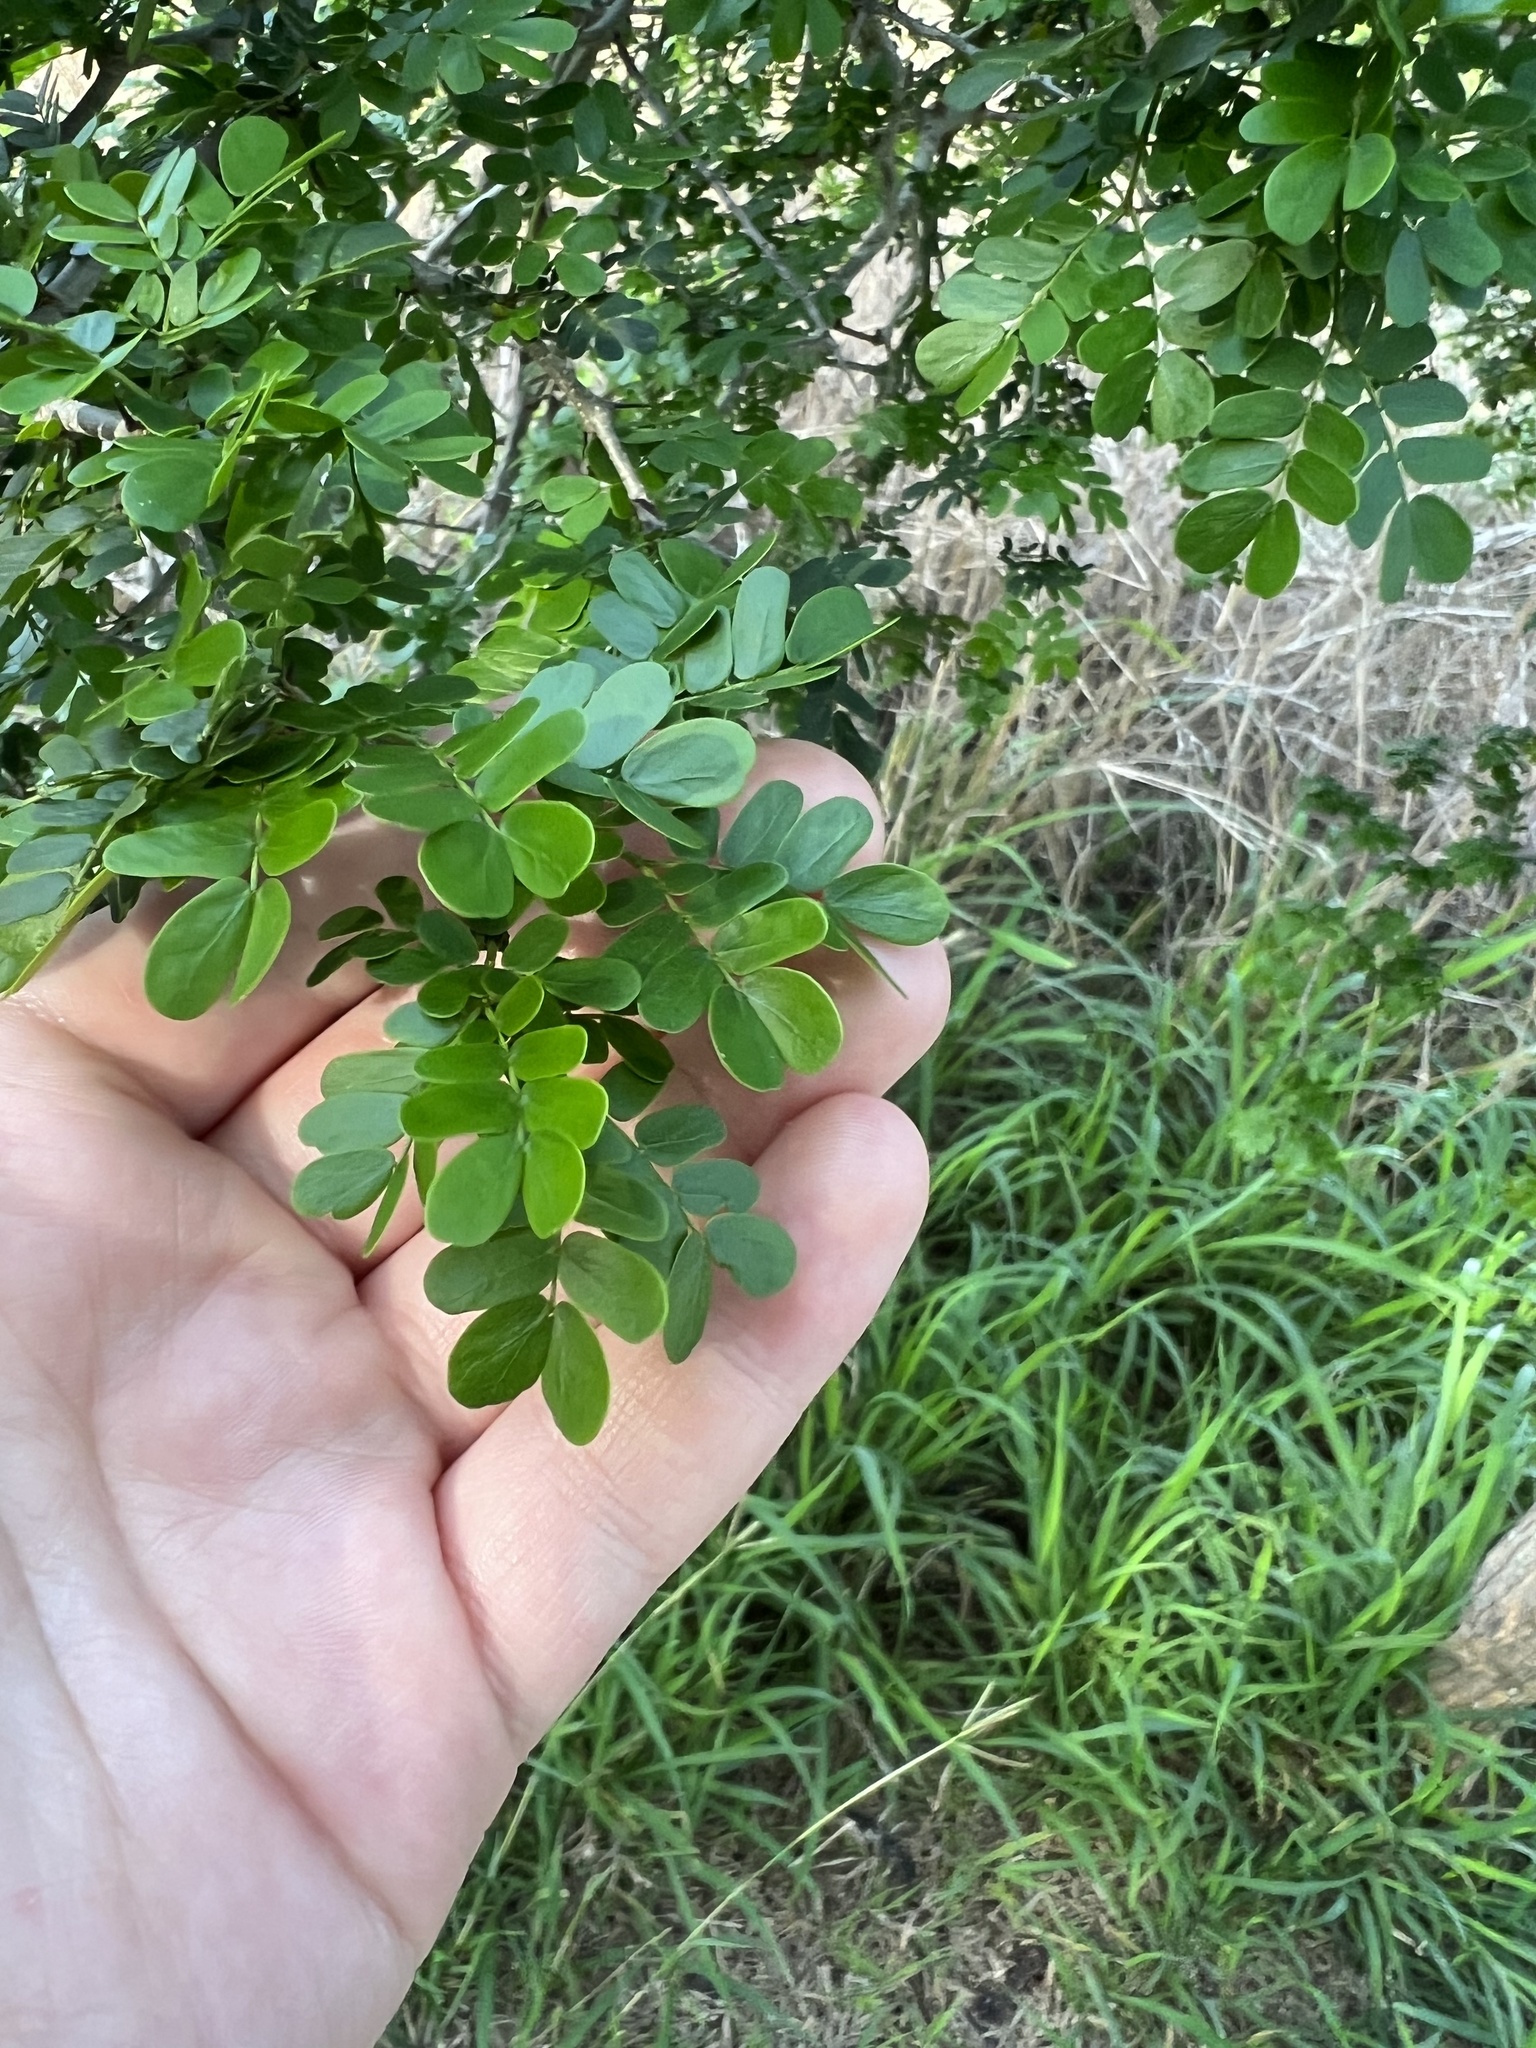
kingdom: Plantae
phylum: Tracheophyta
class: Magnoliopsida
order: Fabales
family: Fabaceae
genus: Ebenopsis
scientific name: Ebenopsis ebano
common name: Ebony blackbead
